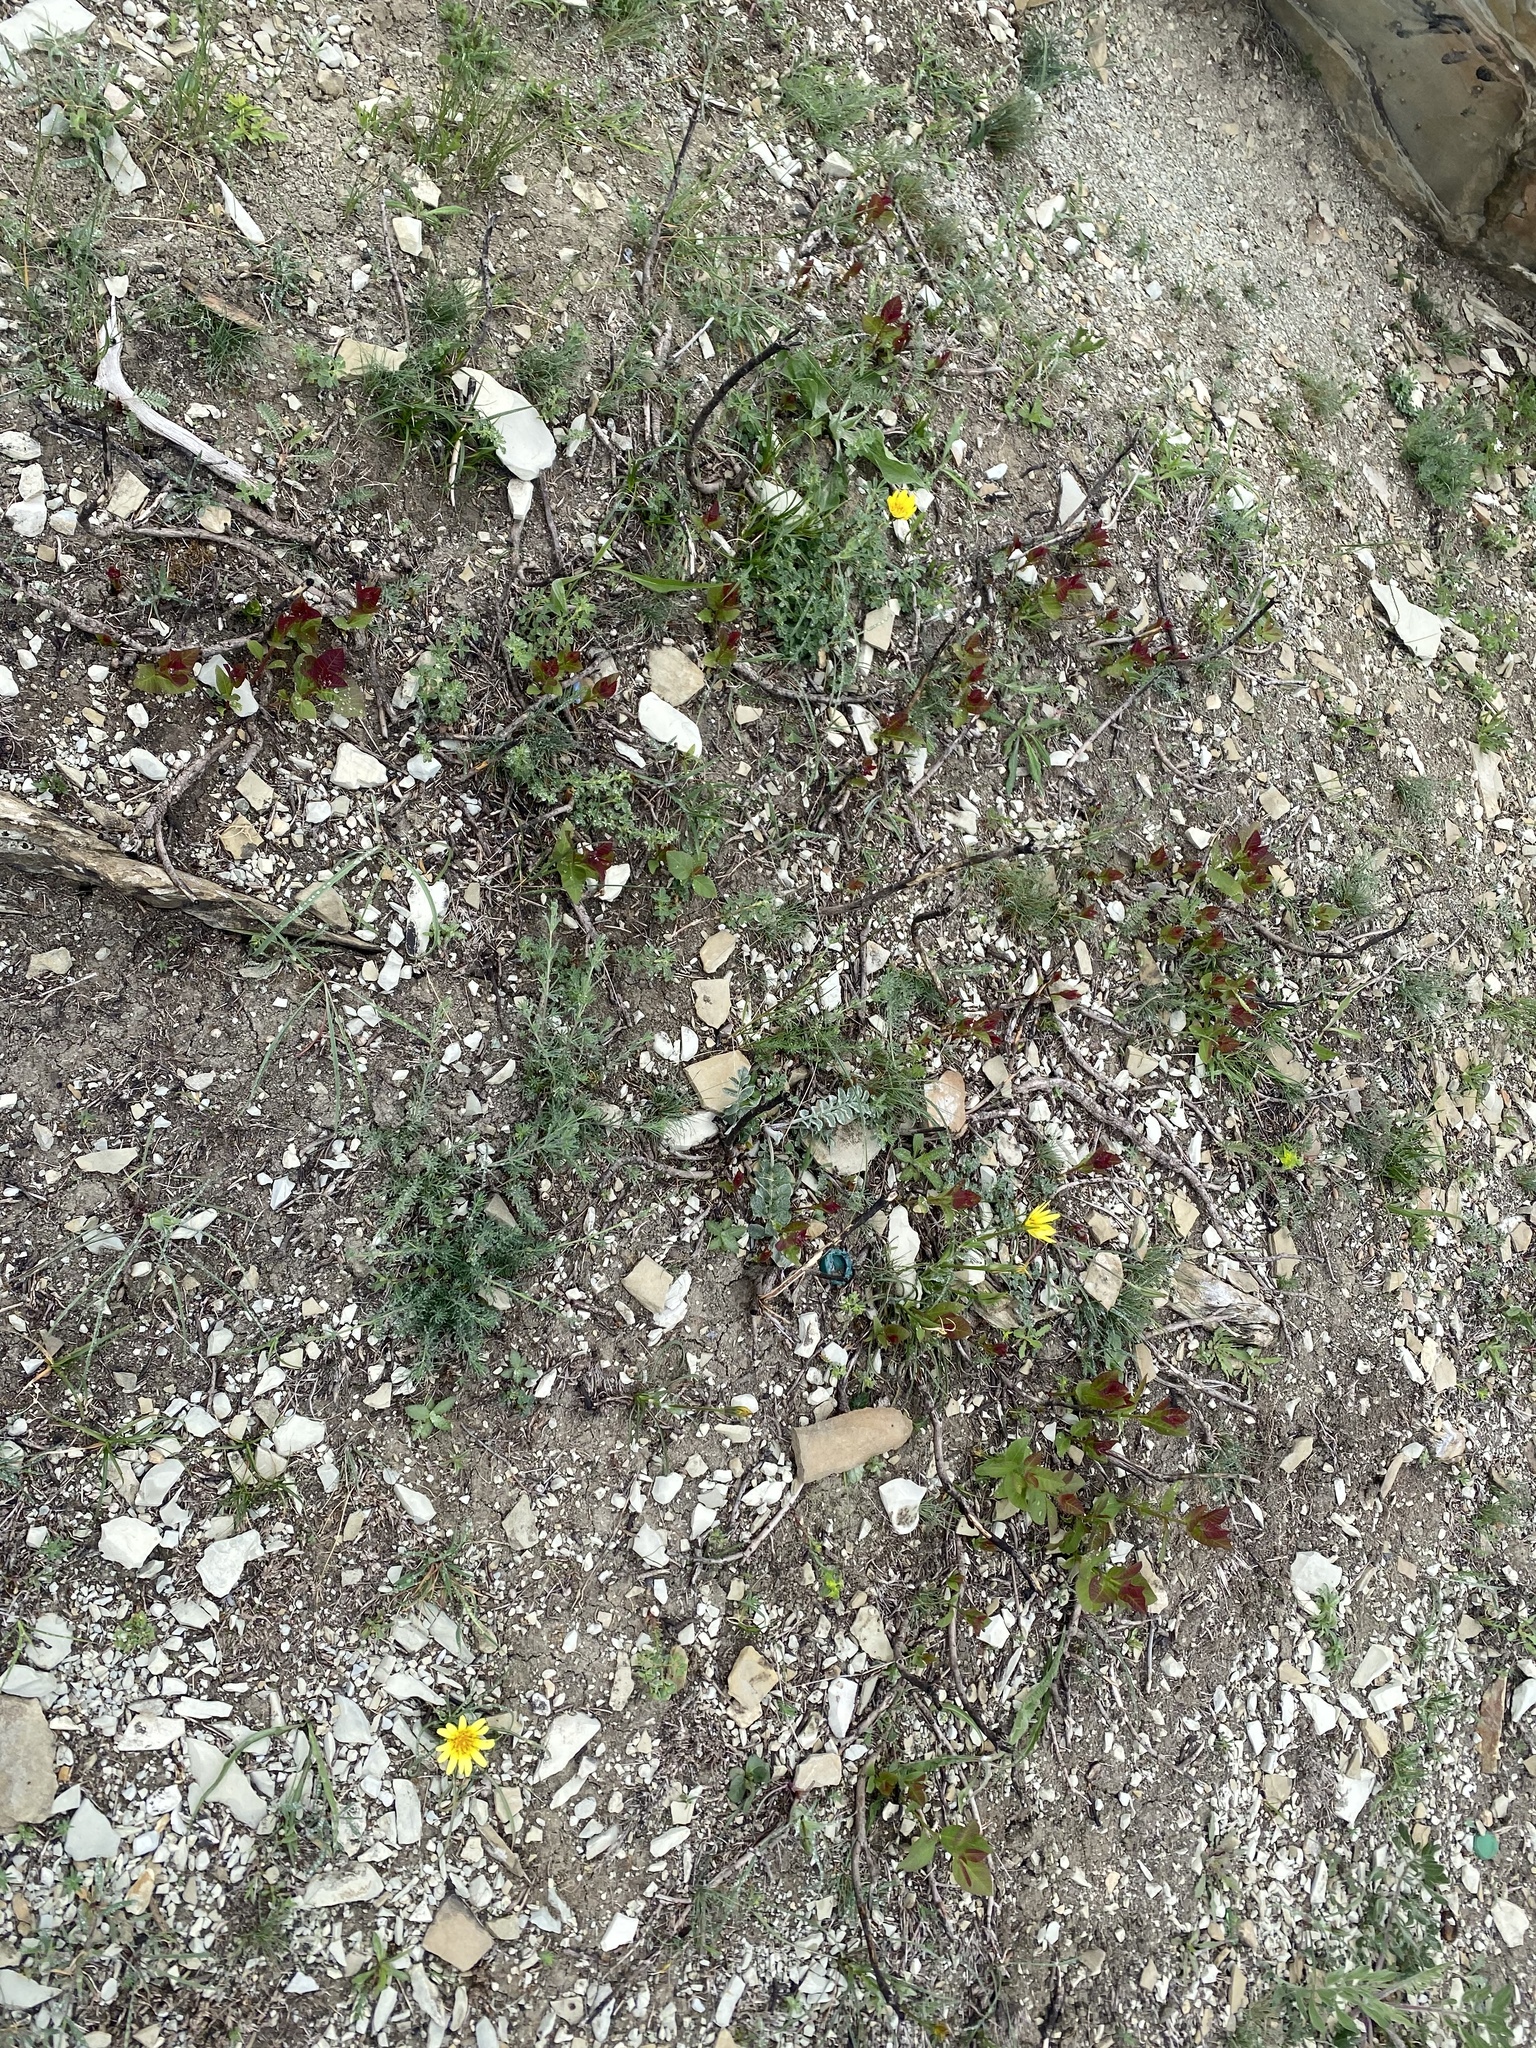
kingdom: Plantae
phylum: Tracheophyta
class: Magnoliopsida
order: Sapindales
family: Anacardiaceae
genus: Cotinus
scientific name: Cotinus coggygria
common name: Smoke-tree
